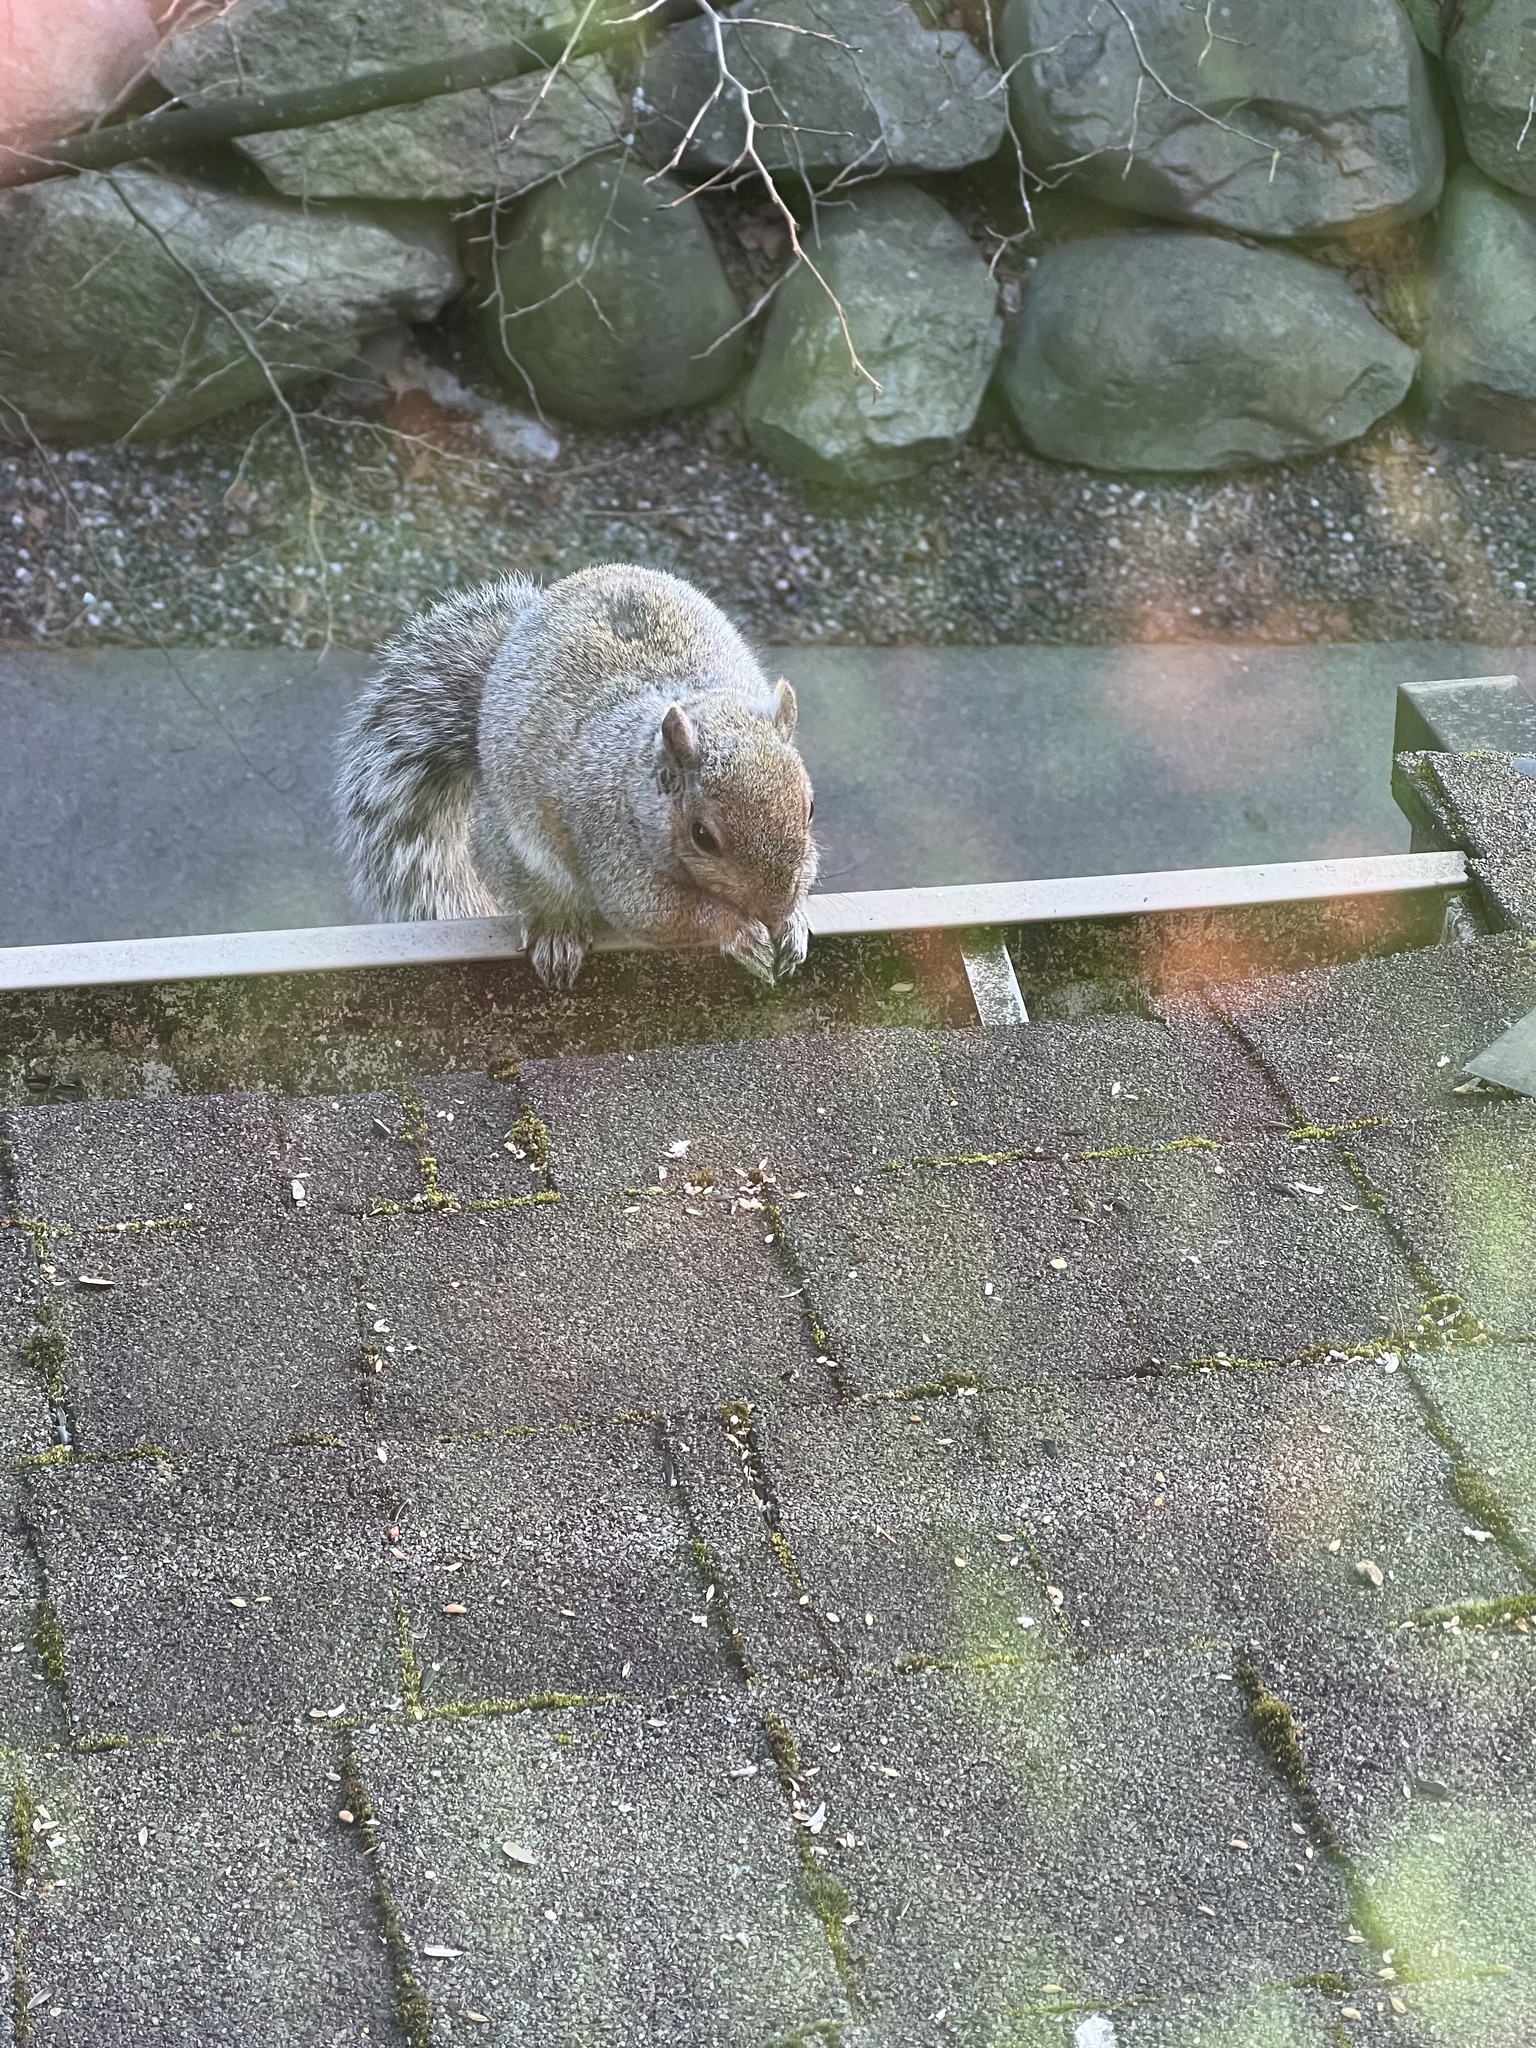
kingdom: Animalia
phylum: Chordata
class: Mammalia
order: Rodentia
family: Sciuridae
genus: Sciurus
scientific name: Sciurus carolinensis
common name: Eastern gray squirrel
